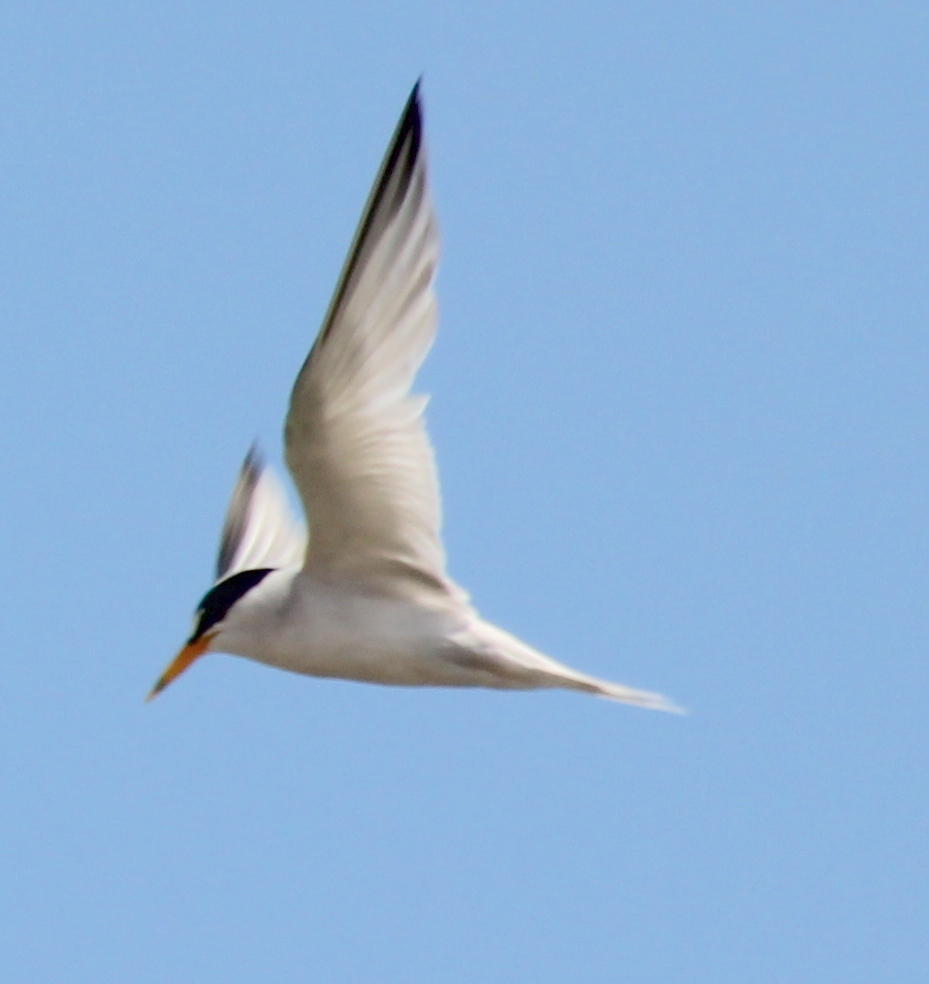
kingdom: Animalia
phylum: Chordata
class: Aves
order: Charadriiformes
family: Laridae
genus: Sternula
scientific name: Sternula antillarum
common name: Least tern
